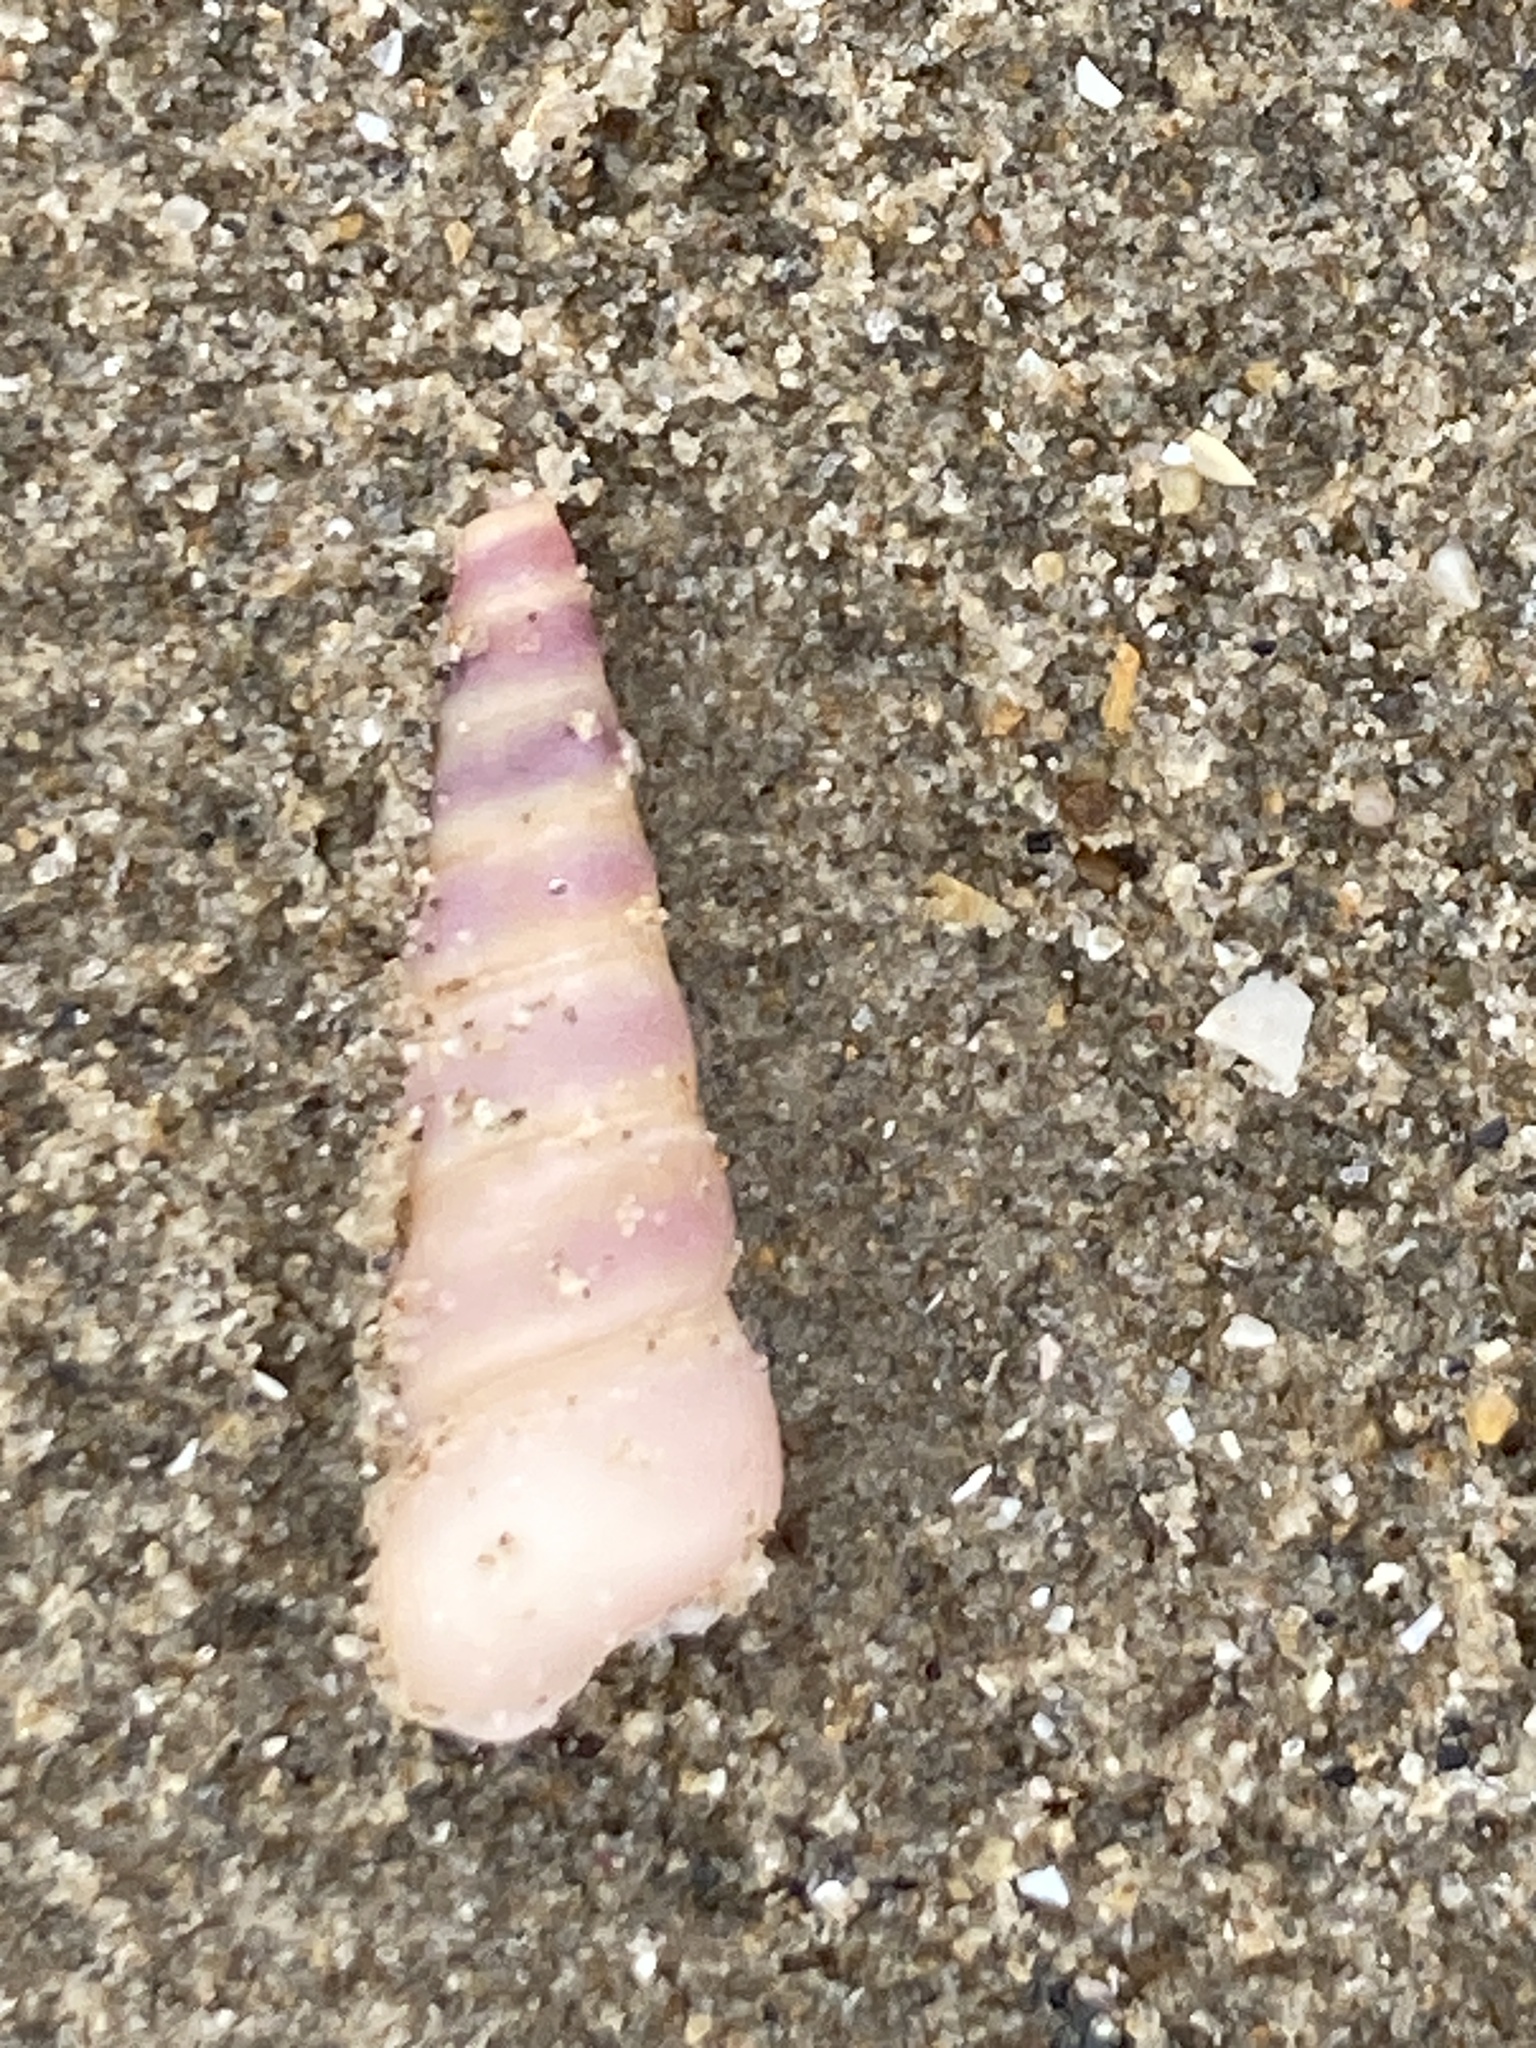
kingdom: Animalia
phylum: Mollusca
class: Gastropoda
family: Turritellidae
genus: Turritellinella
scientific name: Turritellinella tricarinata
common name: Auger shell
